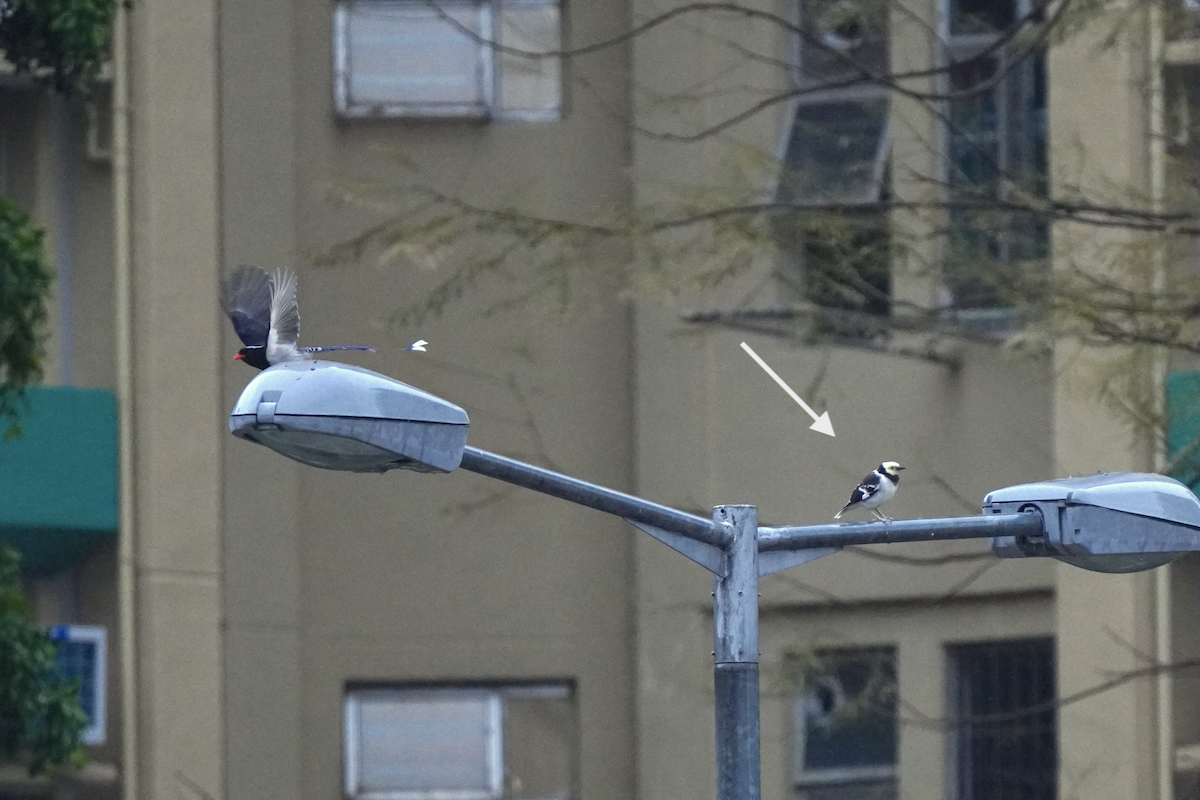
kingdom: Animalia
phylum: Chordata
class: Aves
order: Passeriformes
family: Sturnidae
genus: Gracupica
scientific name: Gracupica nigricollis
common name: Black-collared starling
